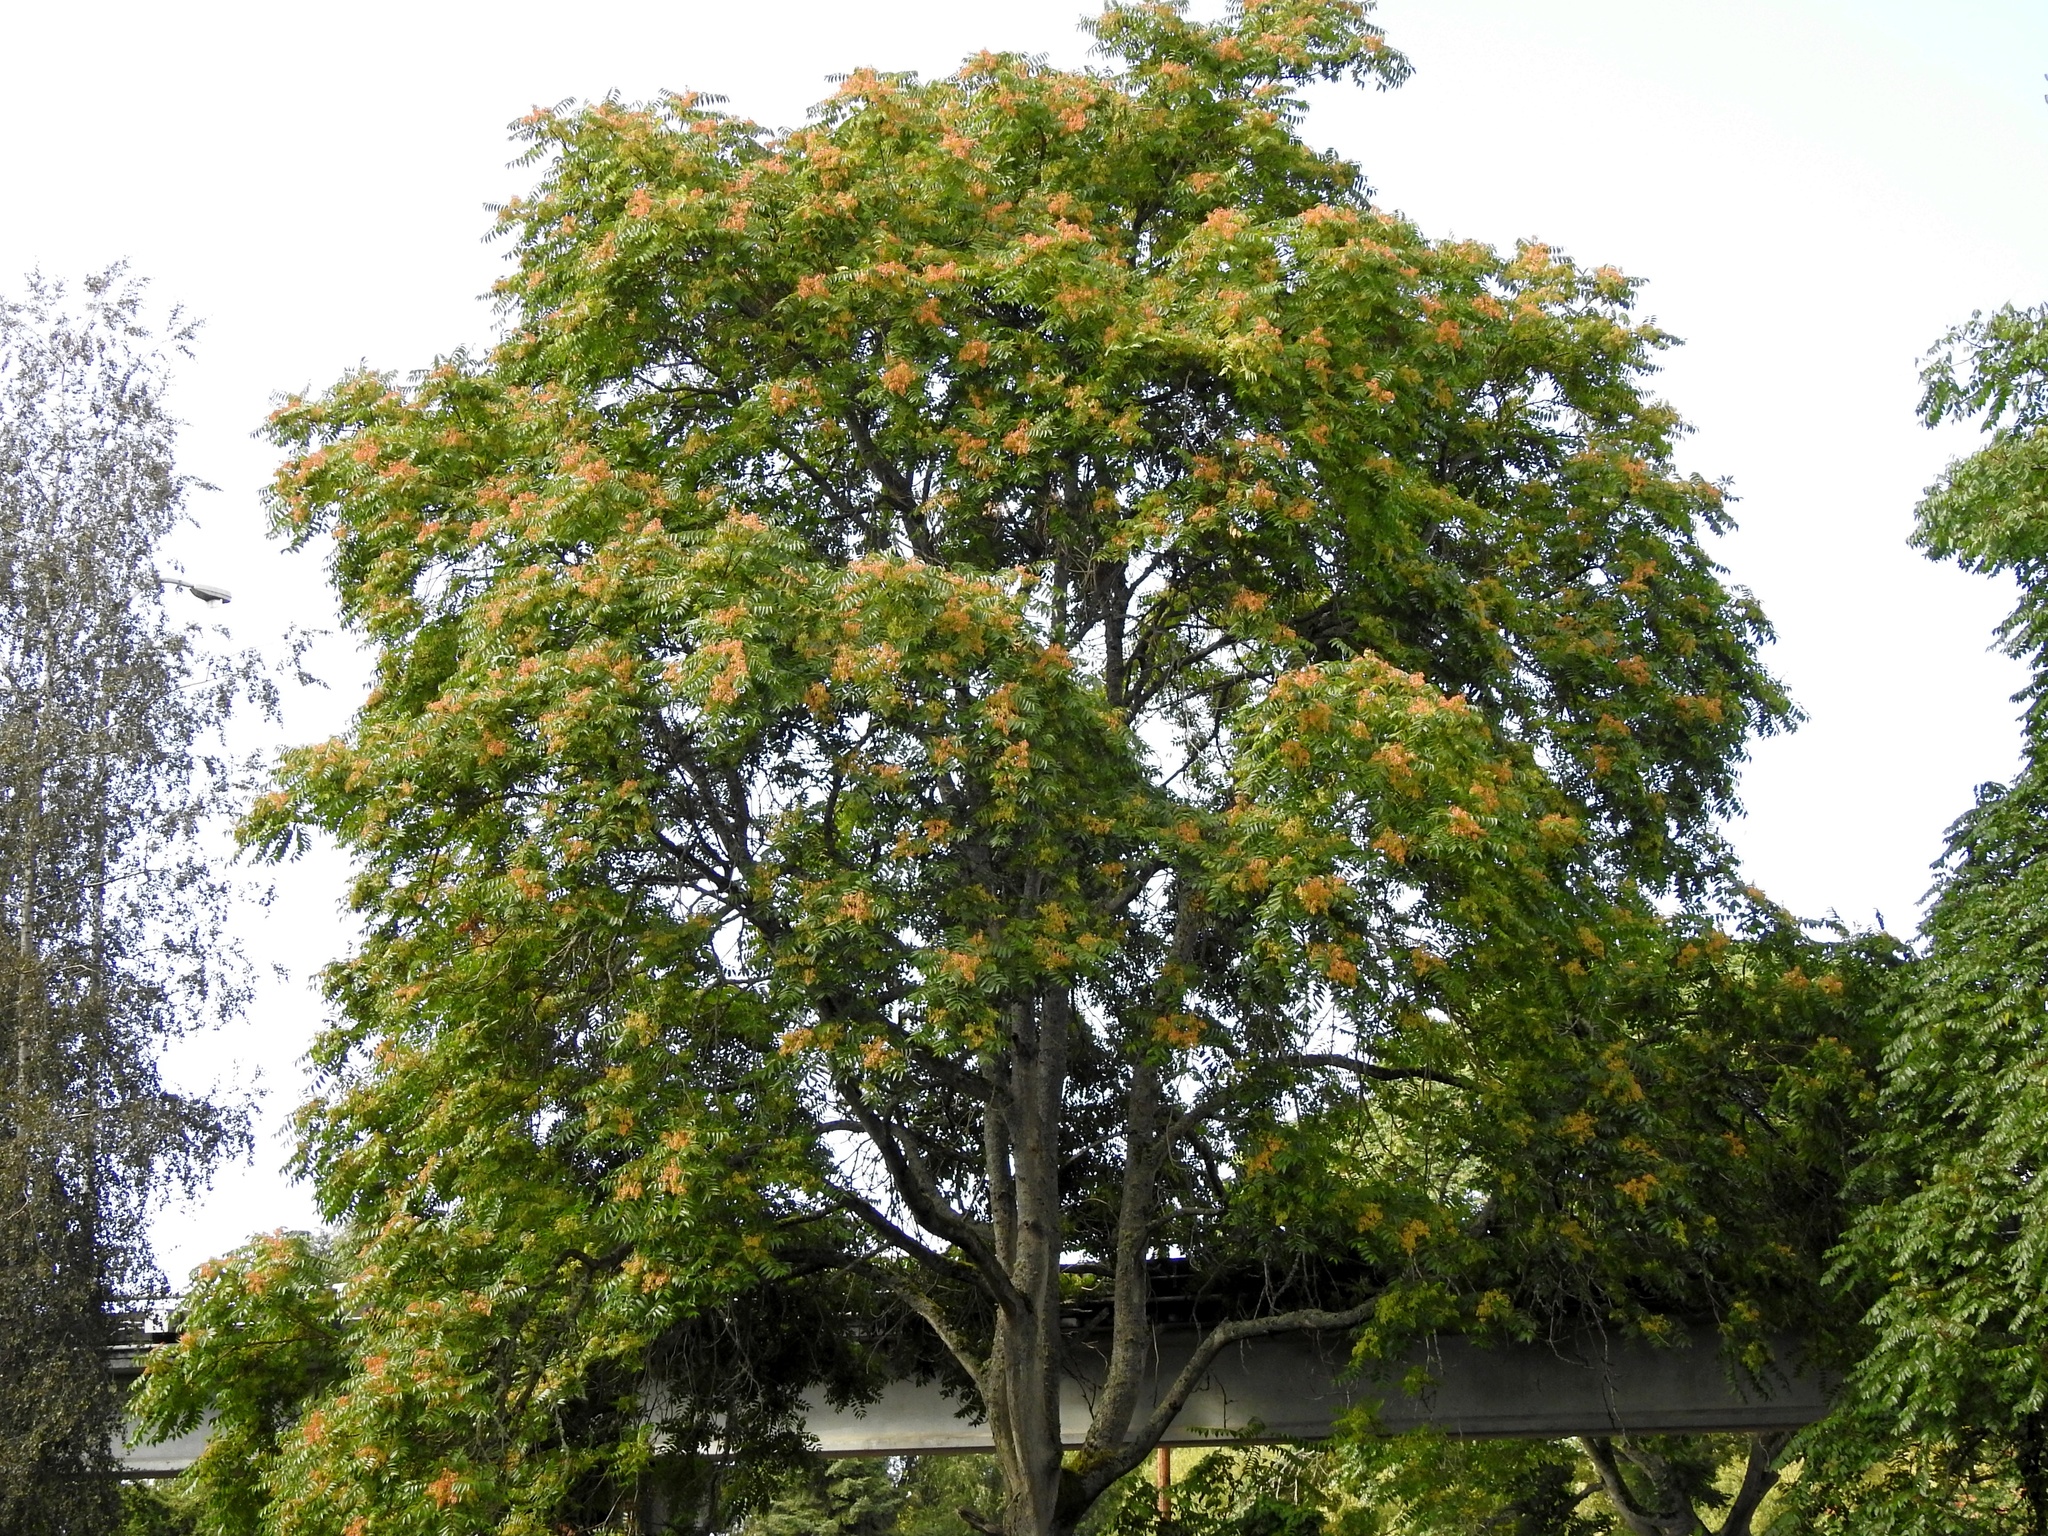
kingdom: Plantae
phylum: Tracheophyta
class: Magnoliopsida
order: Sapindales
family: Simaroubaceae
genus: Ailanthus
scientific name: Ailanthus altissima
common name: Tree-of-heaven
